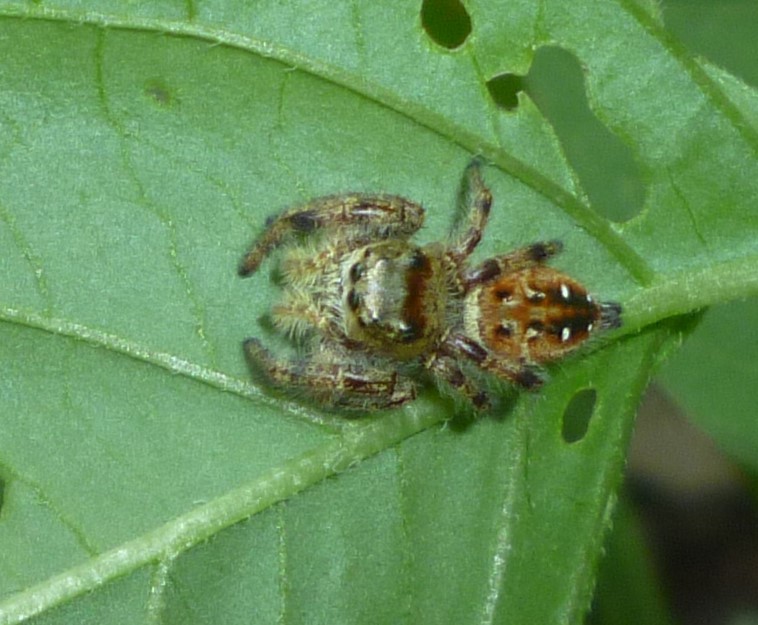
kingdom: Animalia
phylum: Arthropoda
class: Arachnida
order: Araneae
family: Salticidae
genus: Phidippus
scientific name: Phidippus clarus
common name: Brilliant jumping spider
